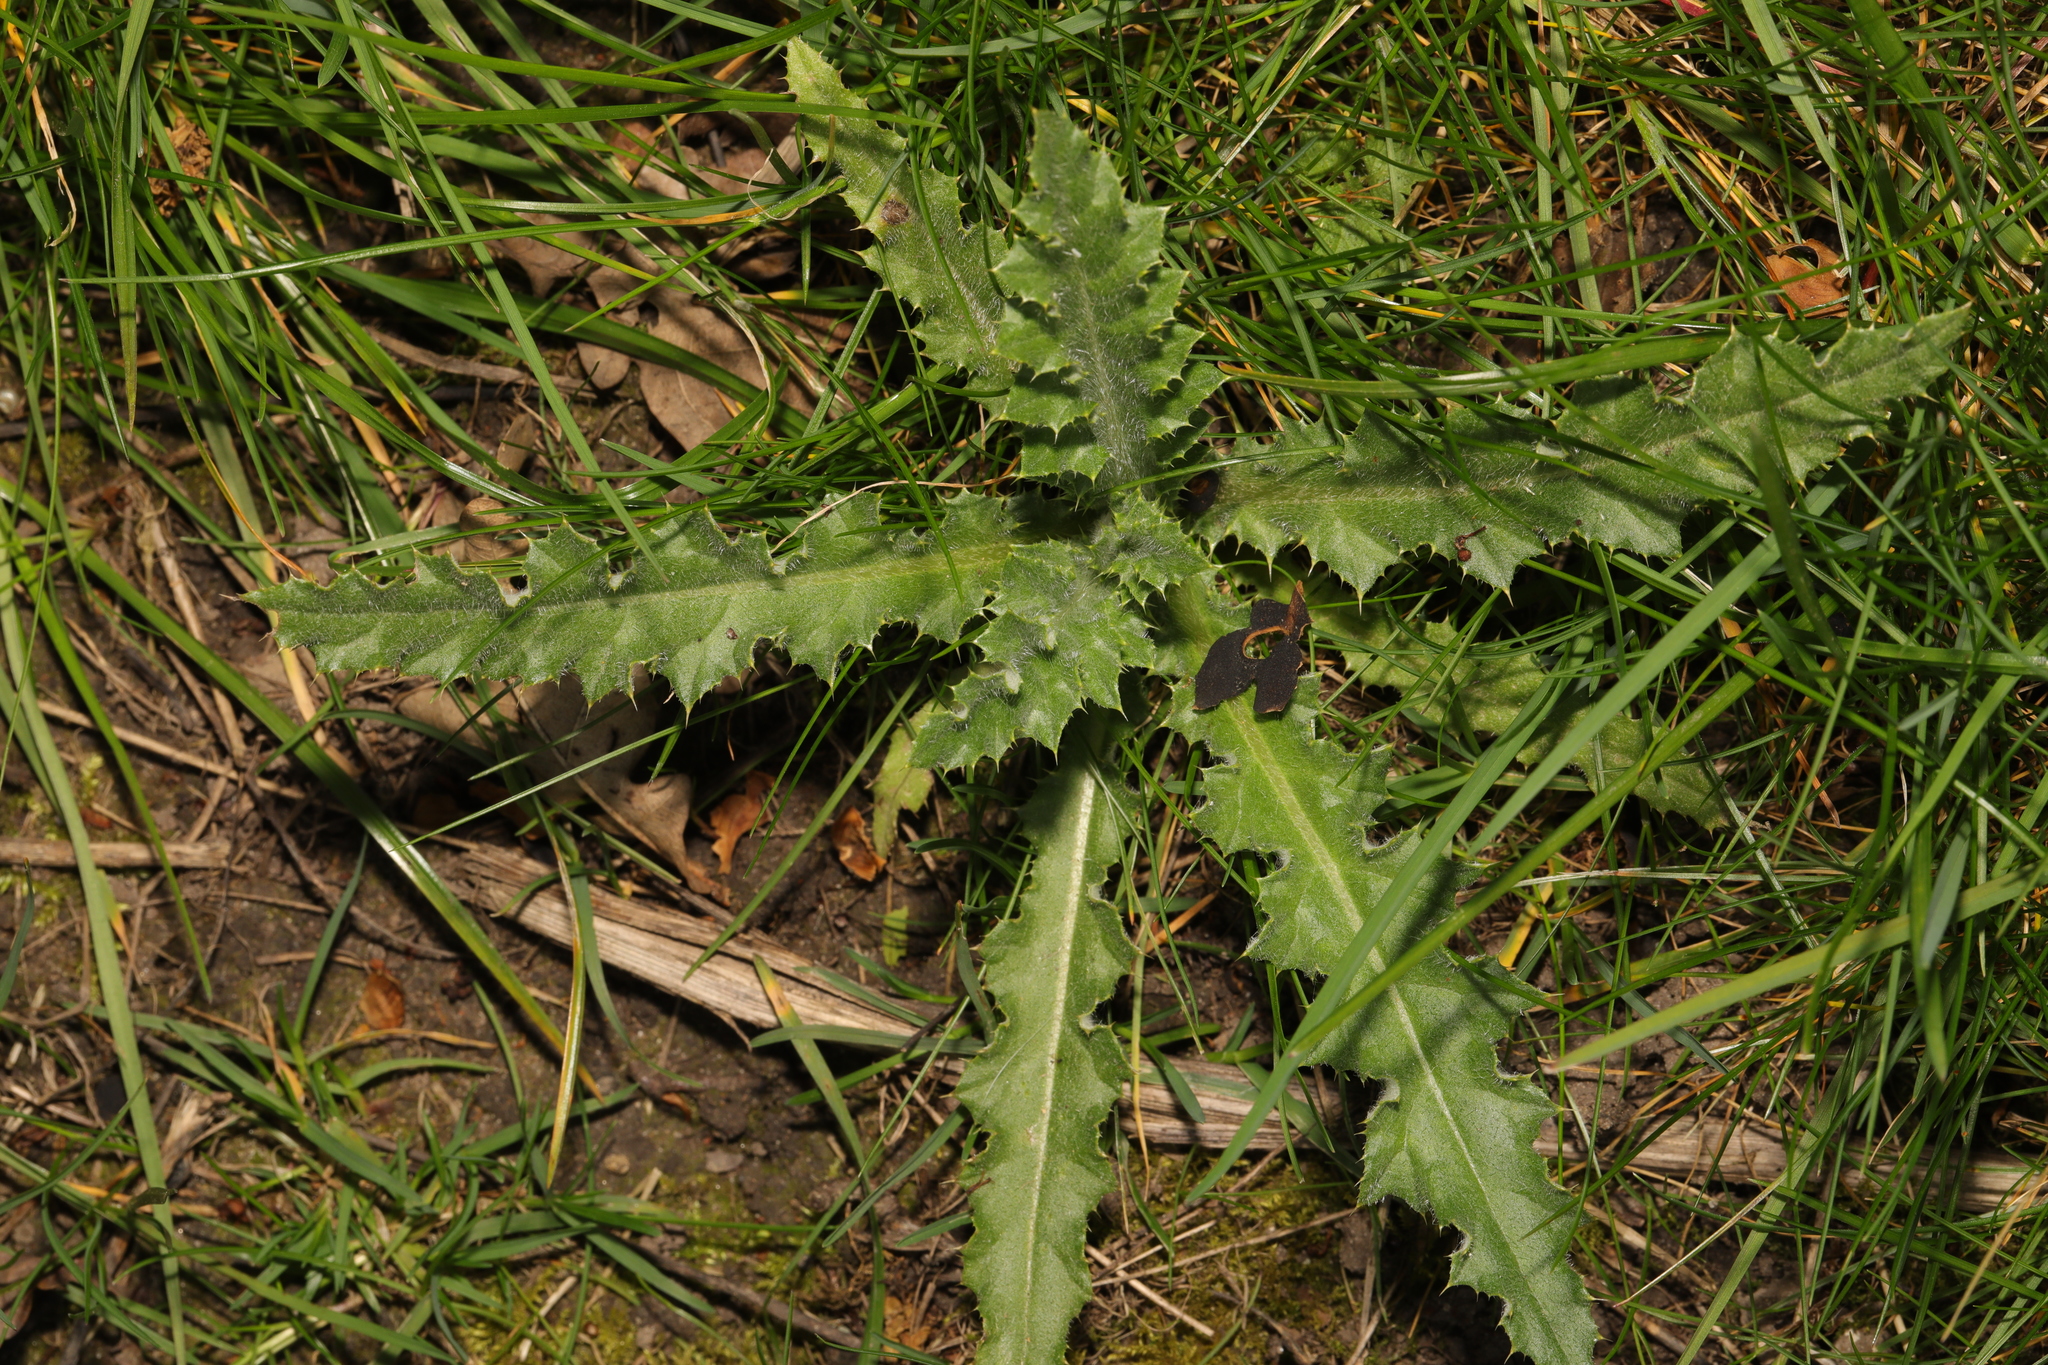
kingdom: Plantae
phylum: Tracheophyta
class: Magnoliopsida
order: Asterales
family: Asteraceae
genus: Cirsium
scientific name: Cirsium arvense
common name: Creeping thistle
